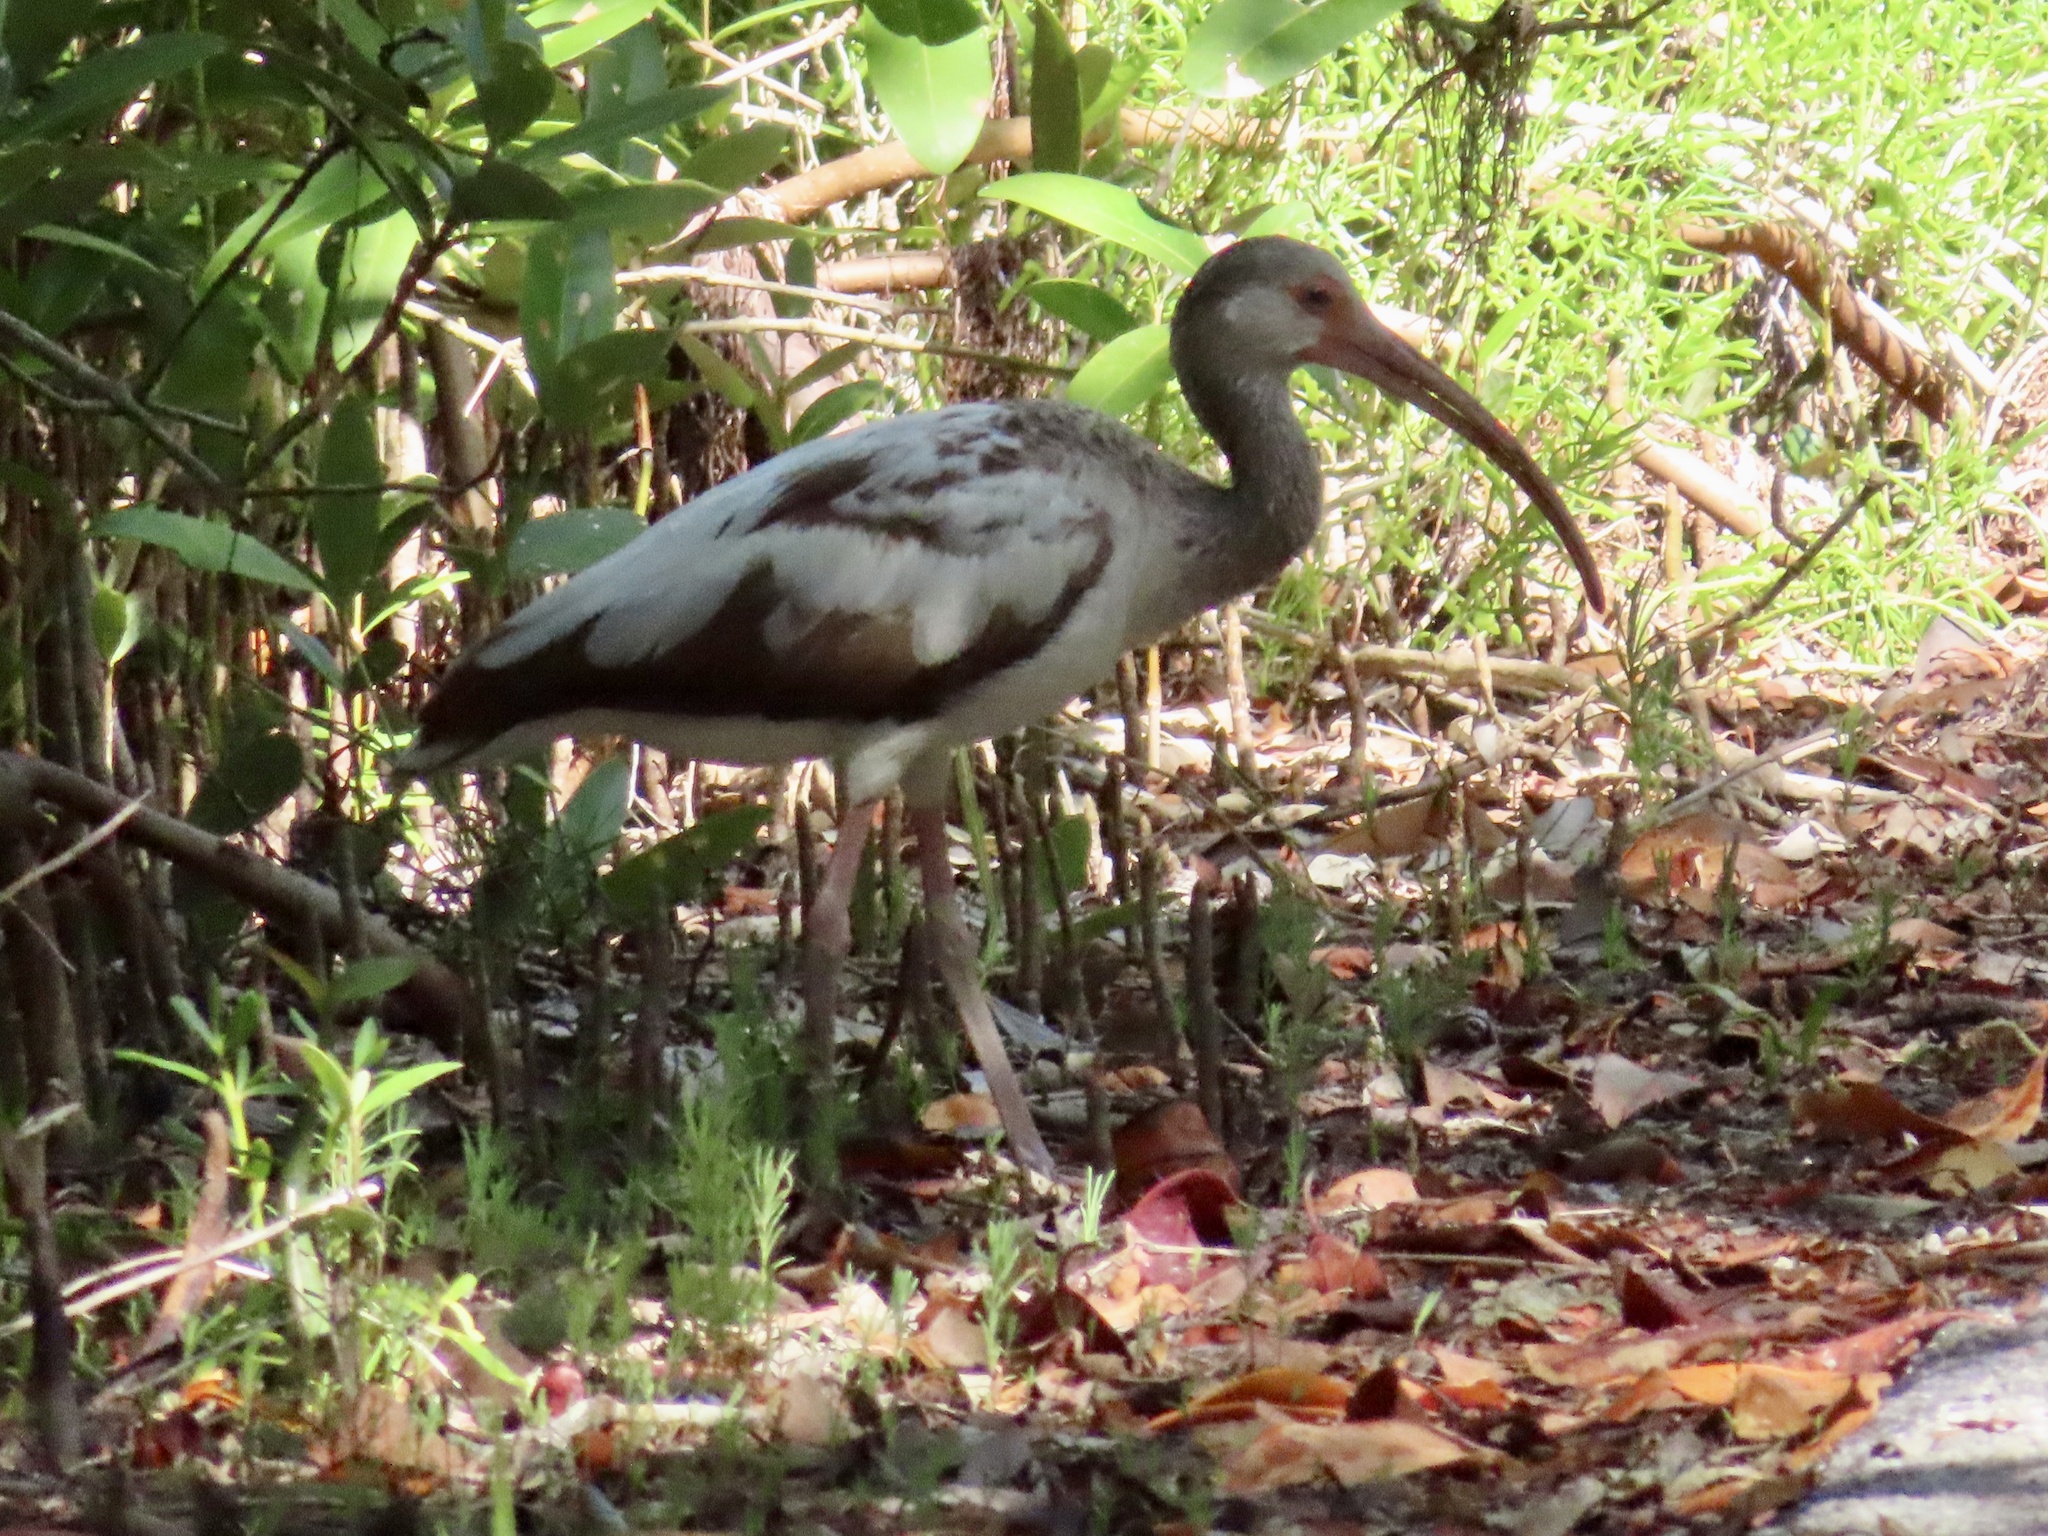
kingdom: Animalia
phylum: Chordata
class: Aves
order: Pelecaniformes
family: Threskiornithidae
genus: Eudocimus
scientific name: Eudocimus albus
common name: White ibis
